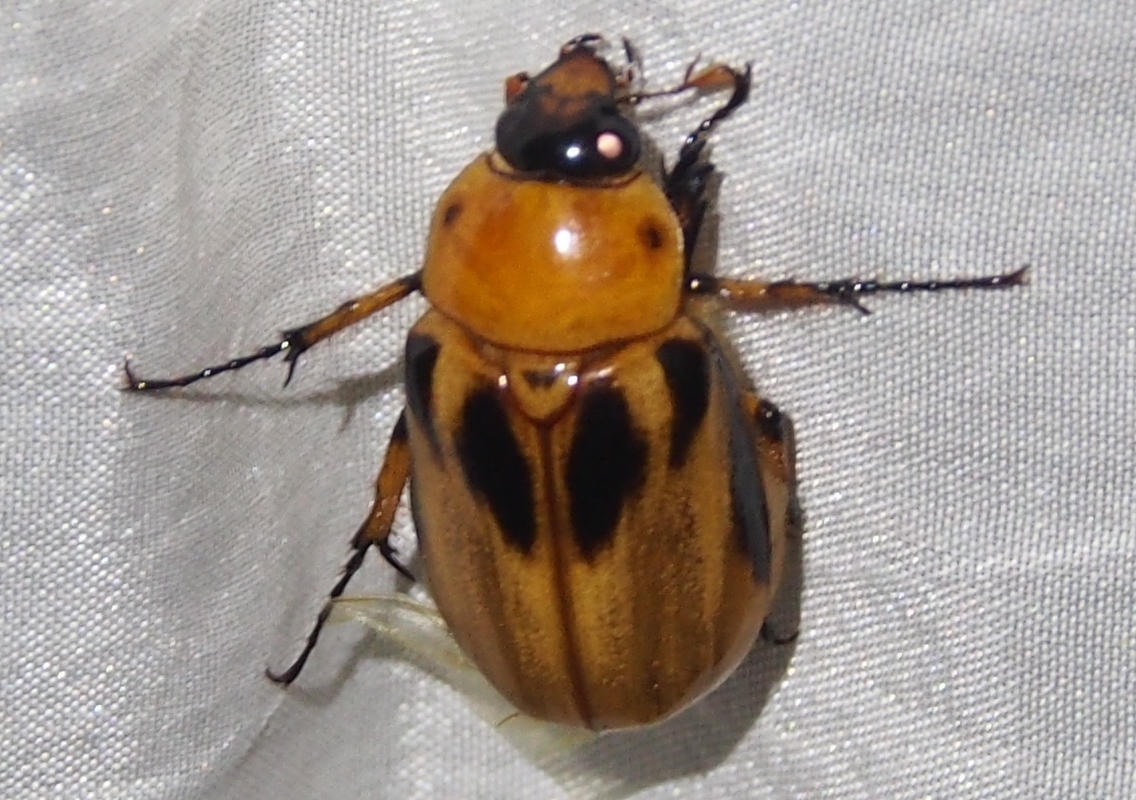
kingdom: Animalia
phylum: Arthropoda
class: Insecta
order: Coleoptera
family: Scarabaeidae
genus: Ancognatha
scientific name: Ancognatha vulgaris
